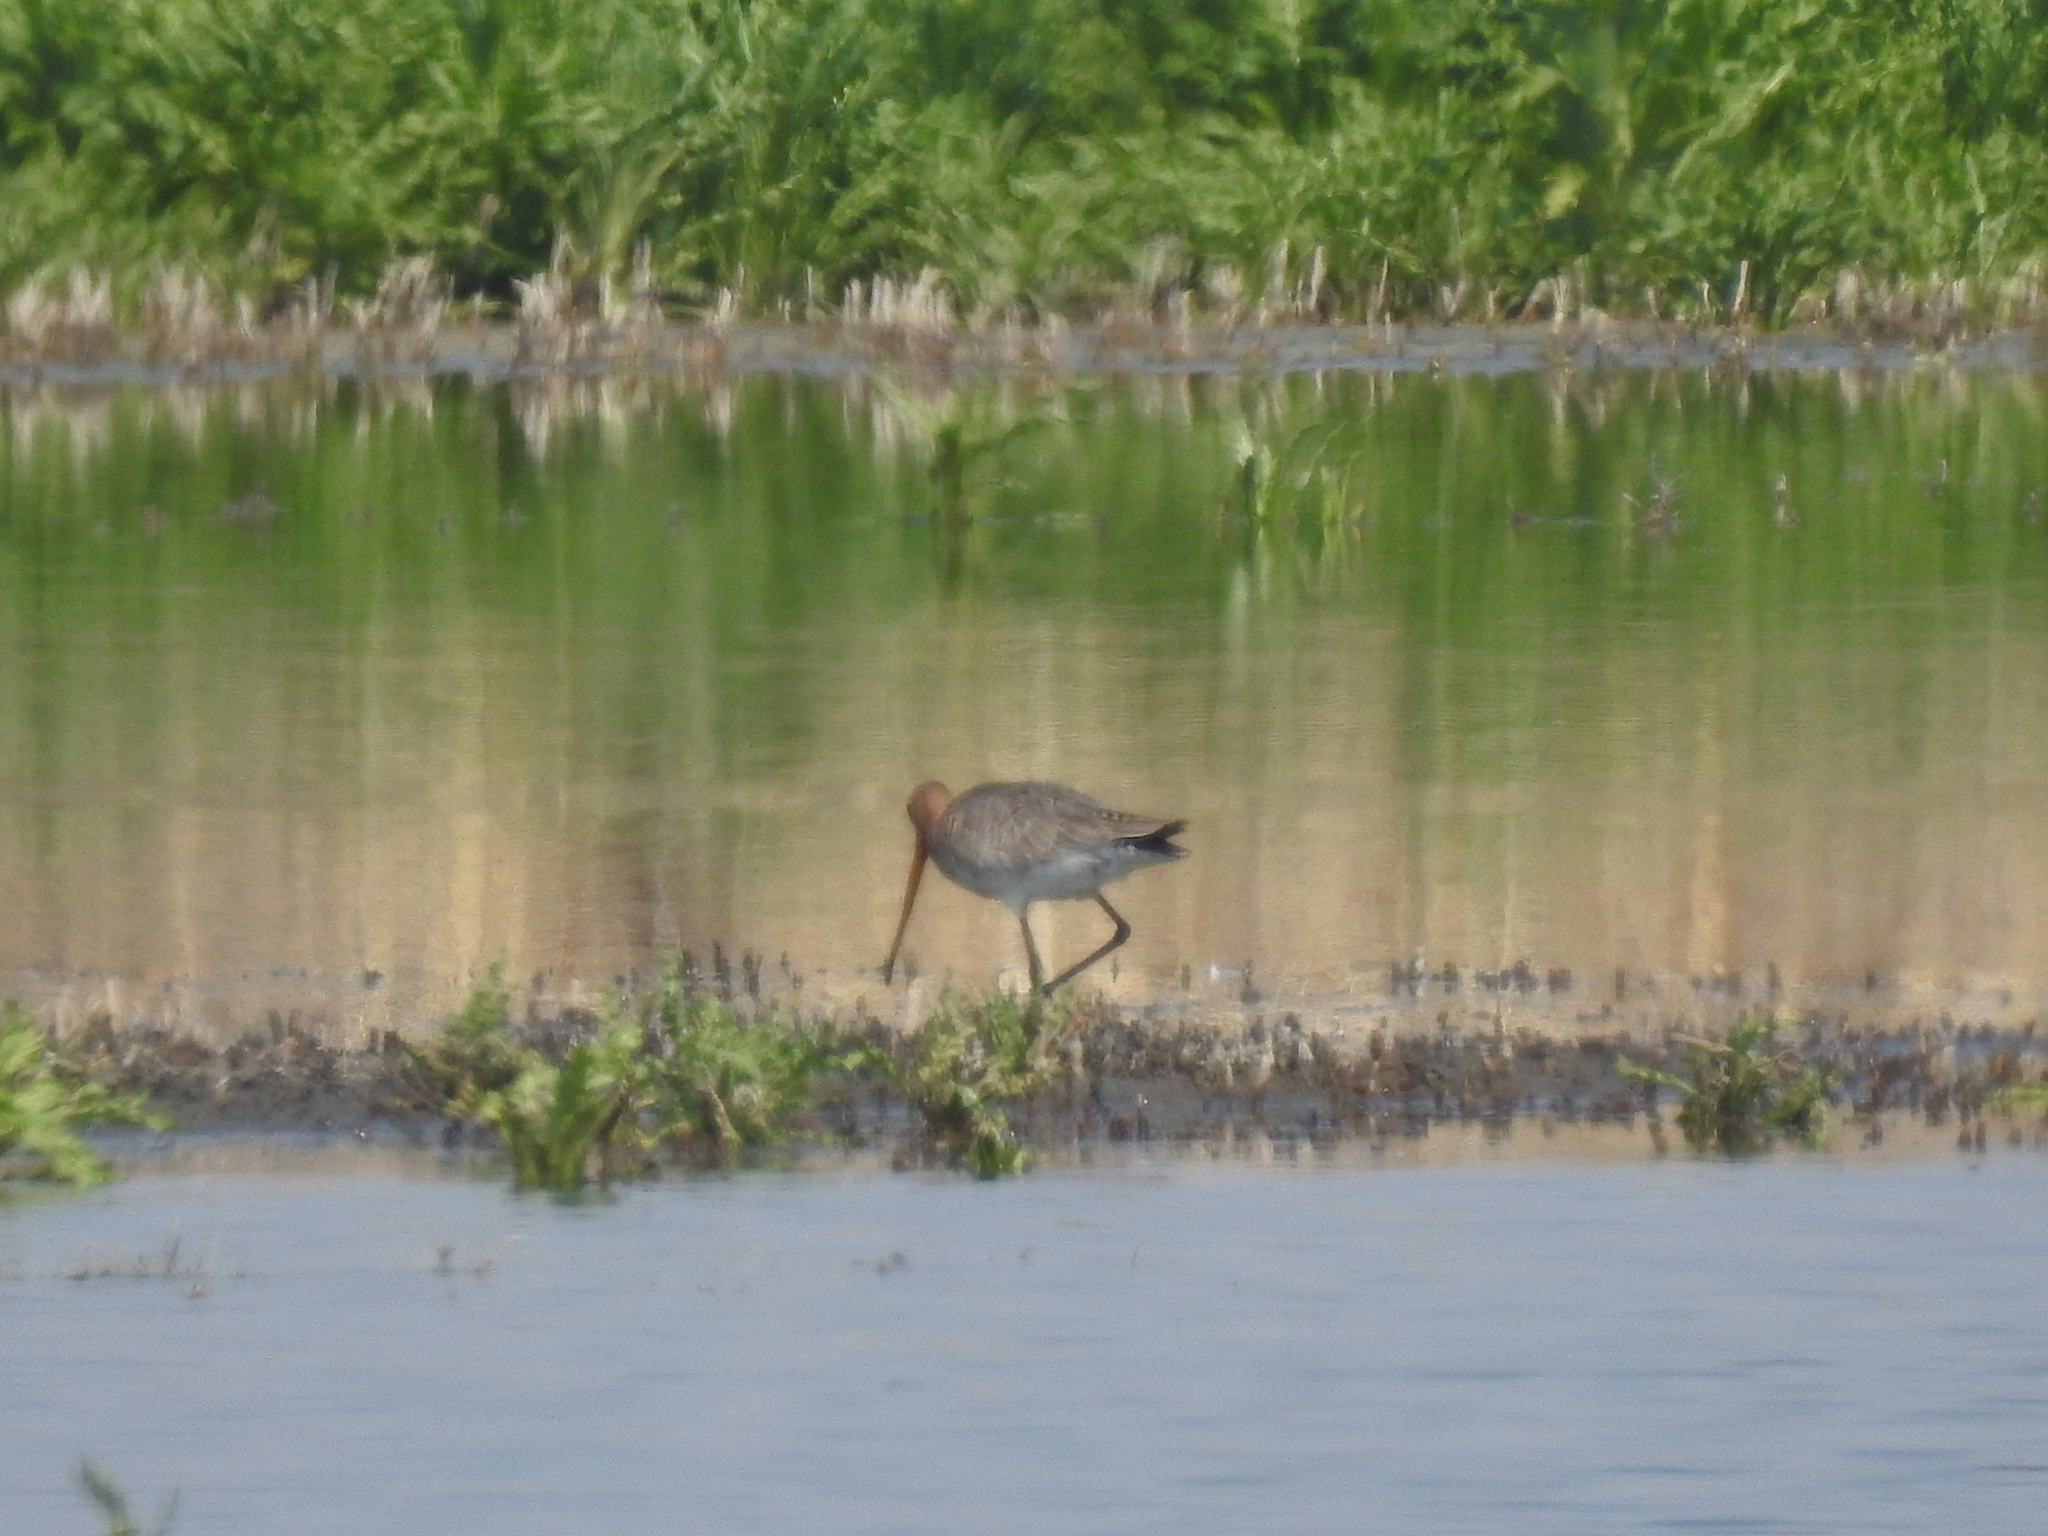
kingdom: Animalia
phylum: Chordata
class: Aves
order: Charadriiformes
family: Scolopacidae
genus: Limosa
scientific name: Limosa limosa
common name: Black-tailed godwit
